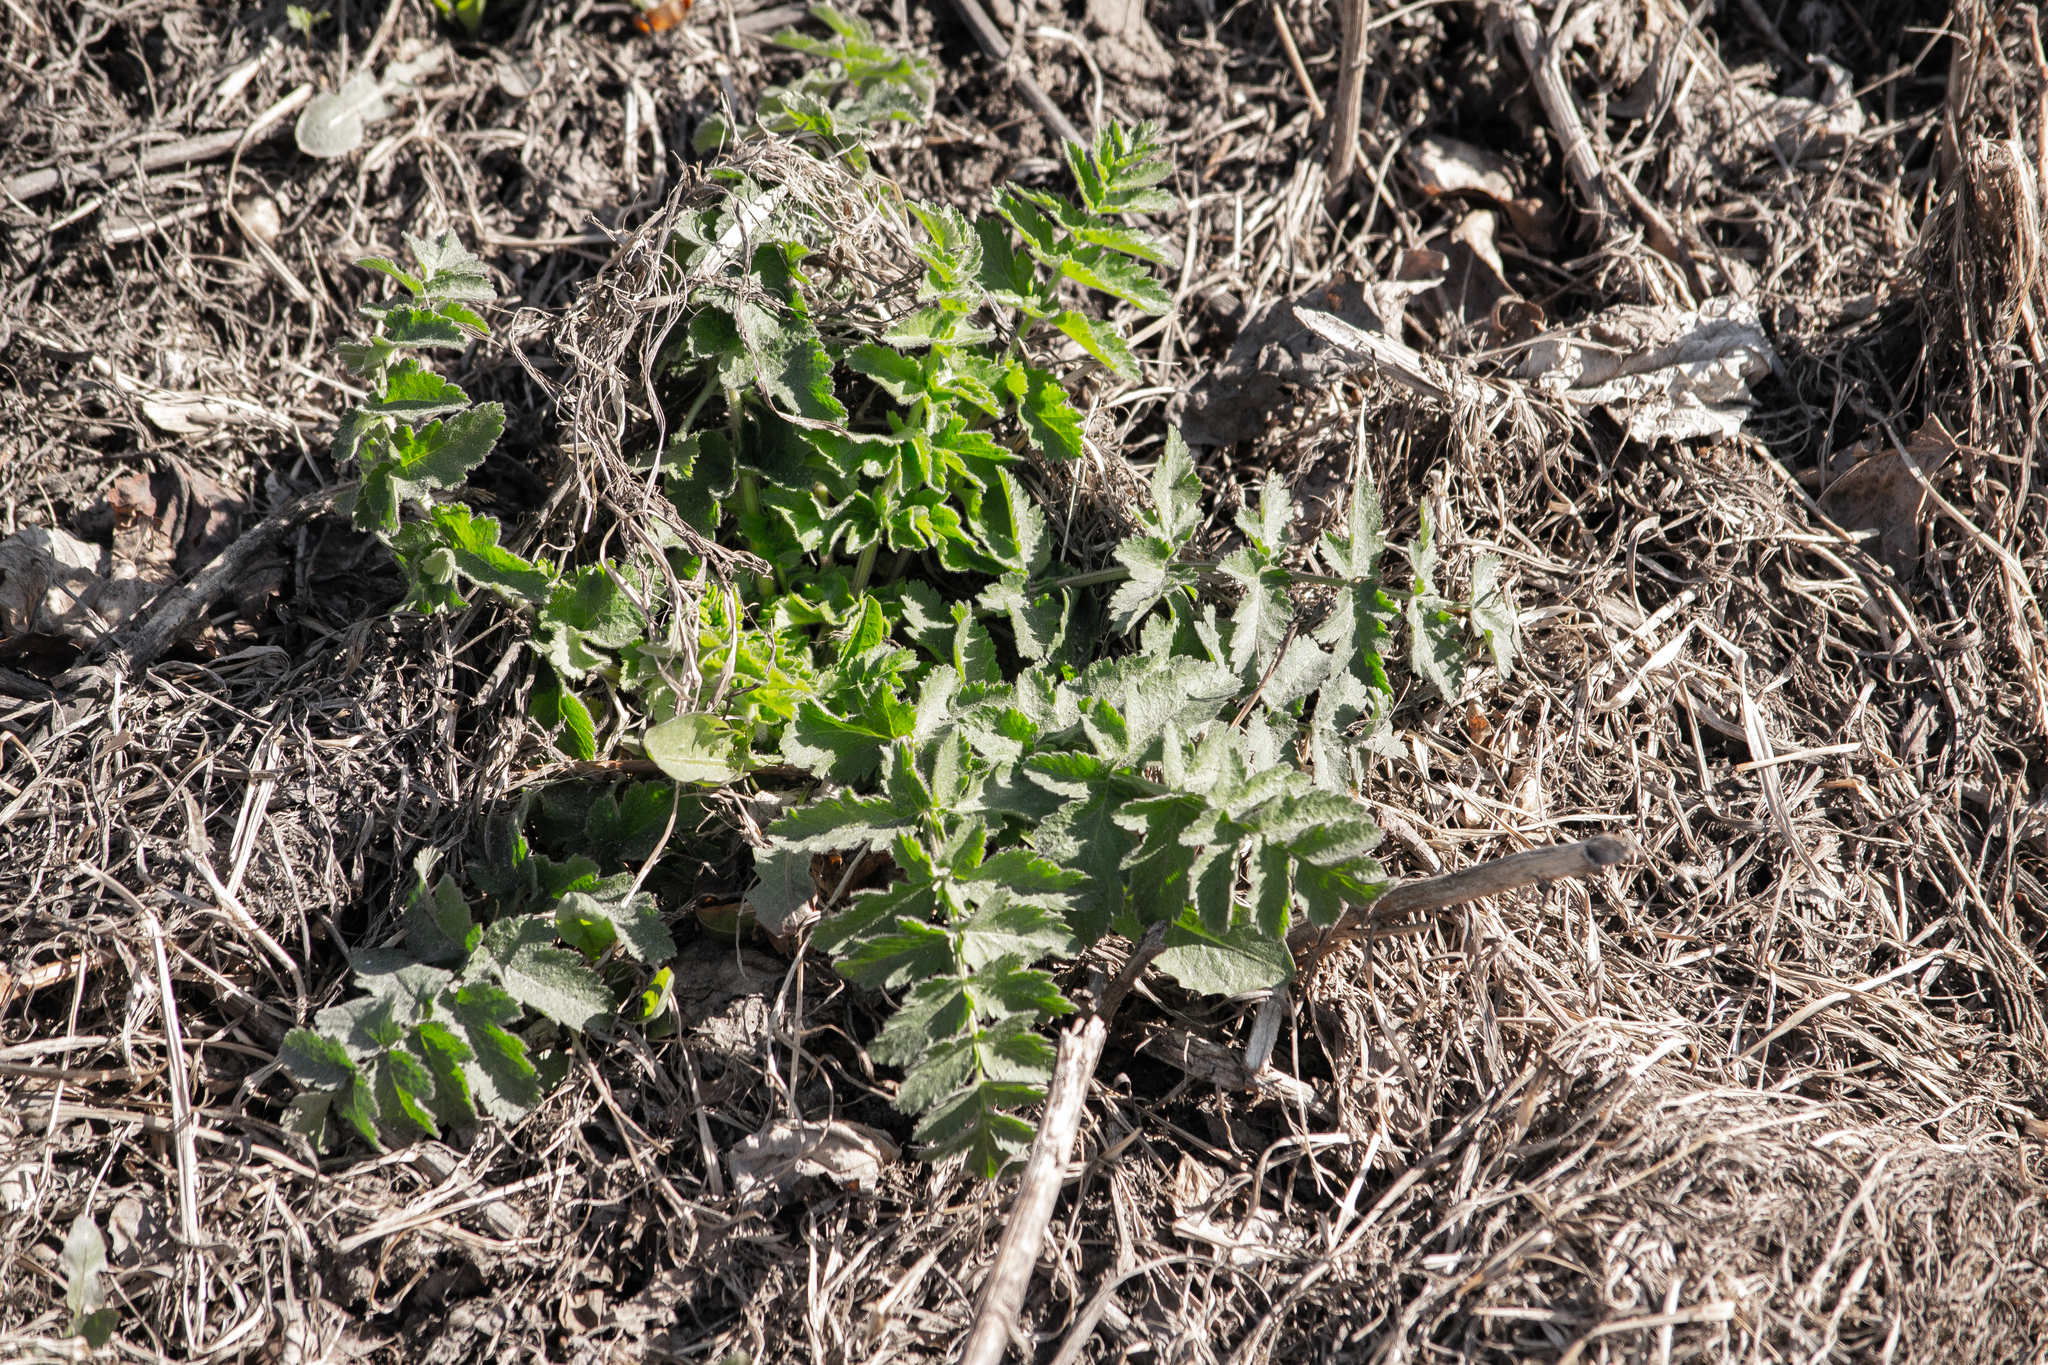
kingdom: Plantae
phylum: Tracheophyta
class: Magnoliopsida
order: Apiales
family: Apiaceae
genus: Pastinaca
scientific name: Pastinaca sativa
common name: Wild parsnip
